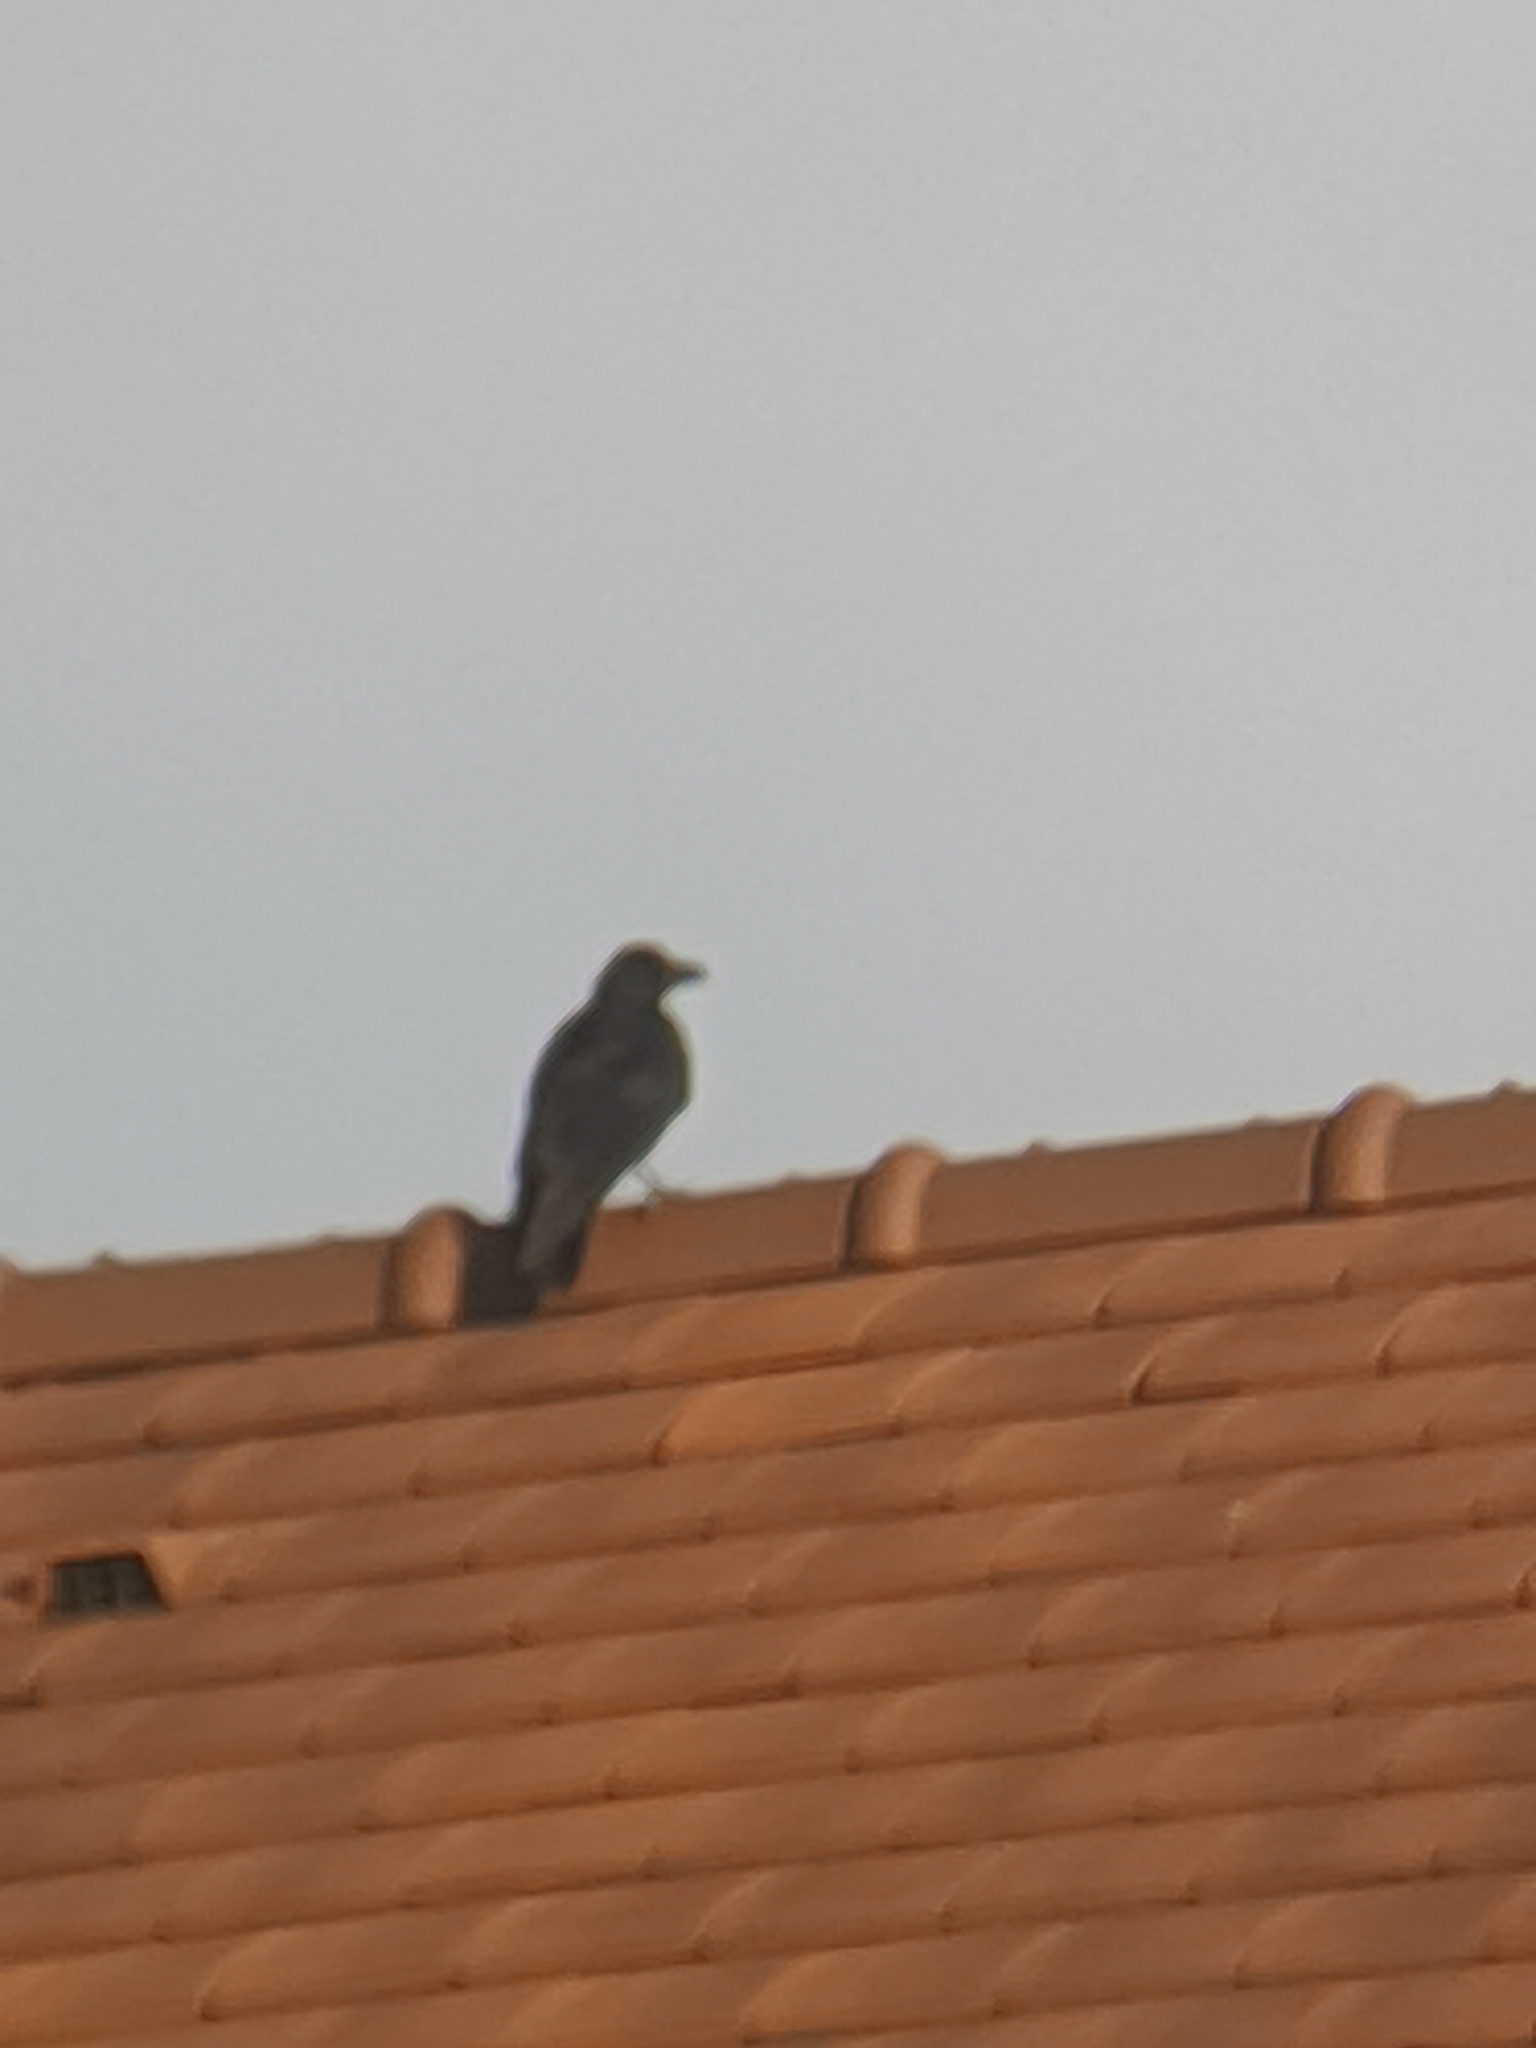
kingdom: Animalia
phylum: Chordata
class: Aves
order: Passeriformes
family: Corvidae
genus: Corvus
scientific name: Corvus corone
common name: Carrion crow
